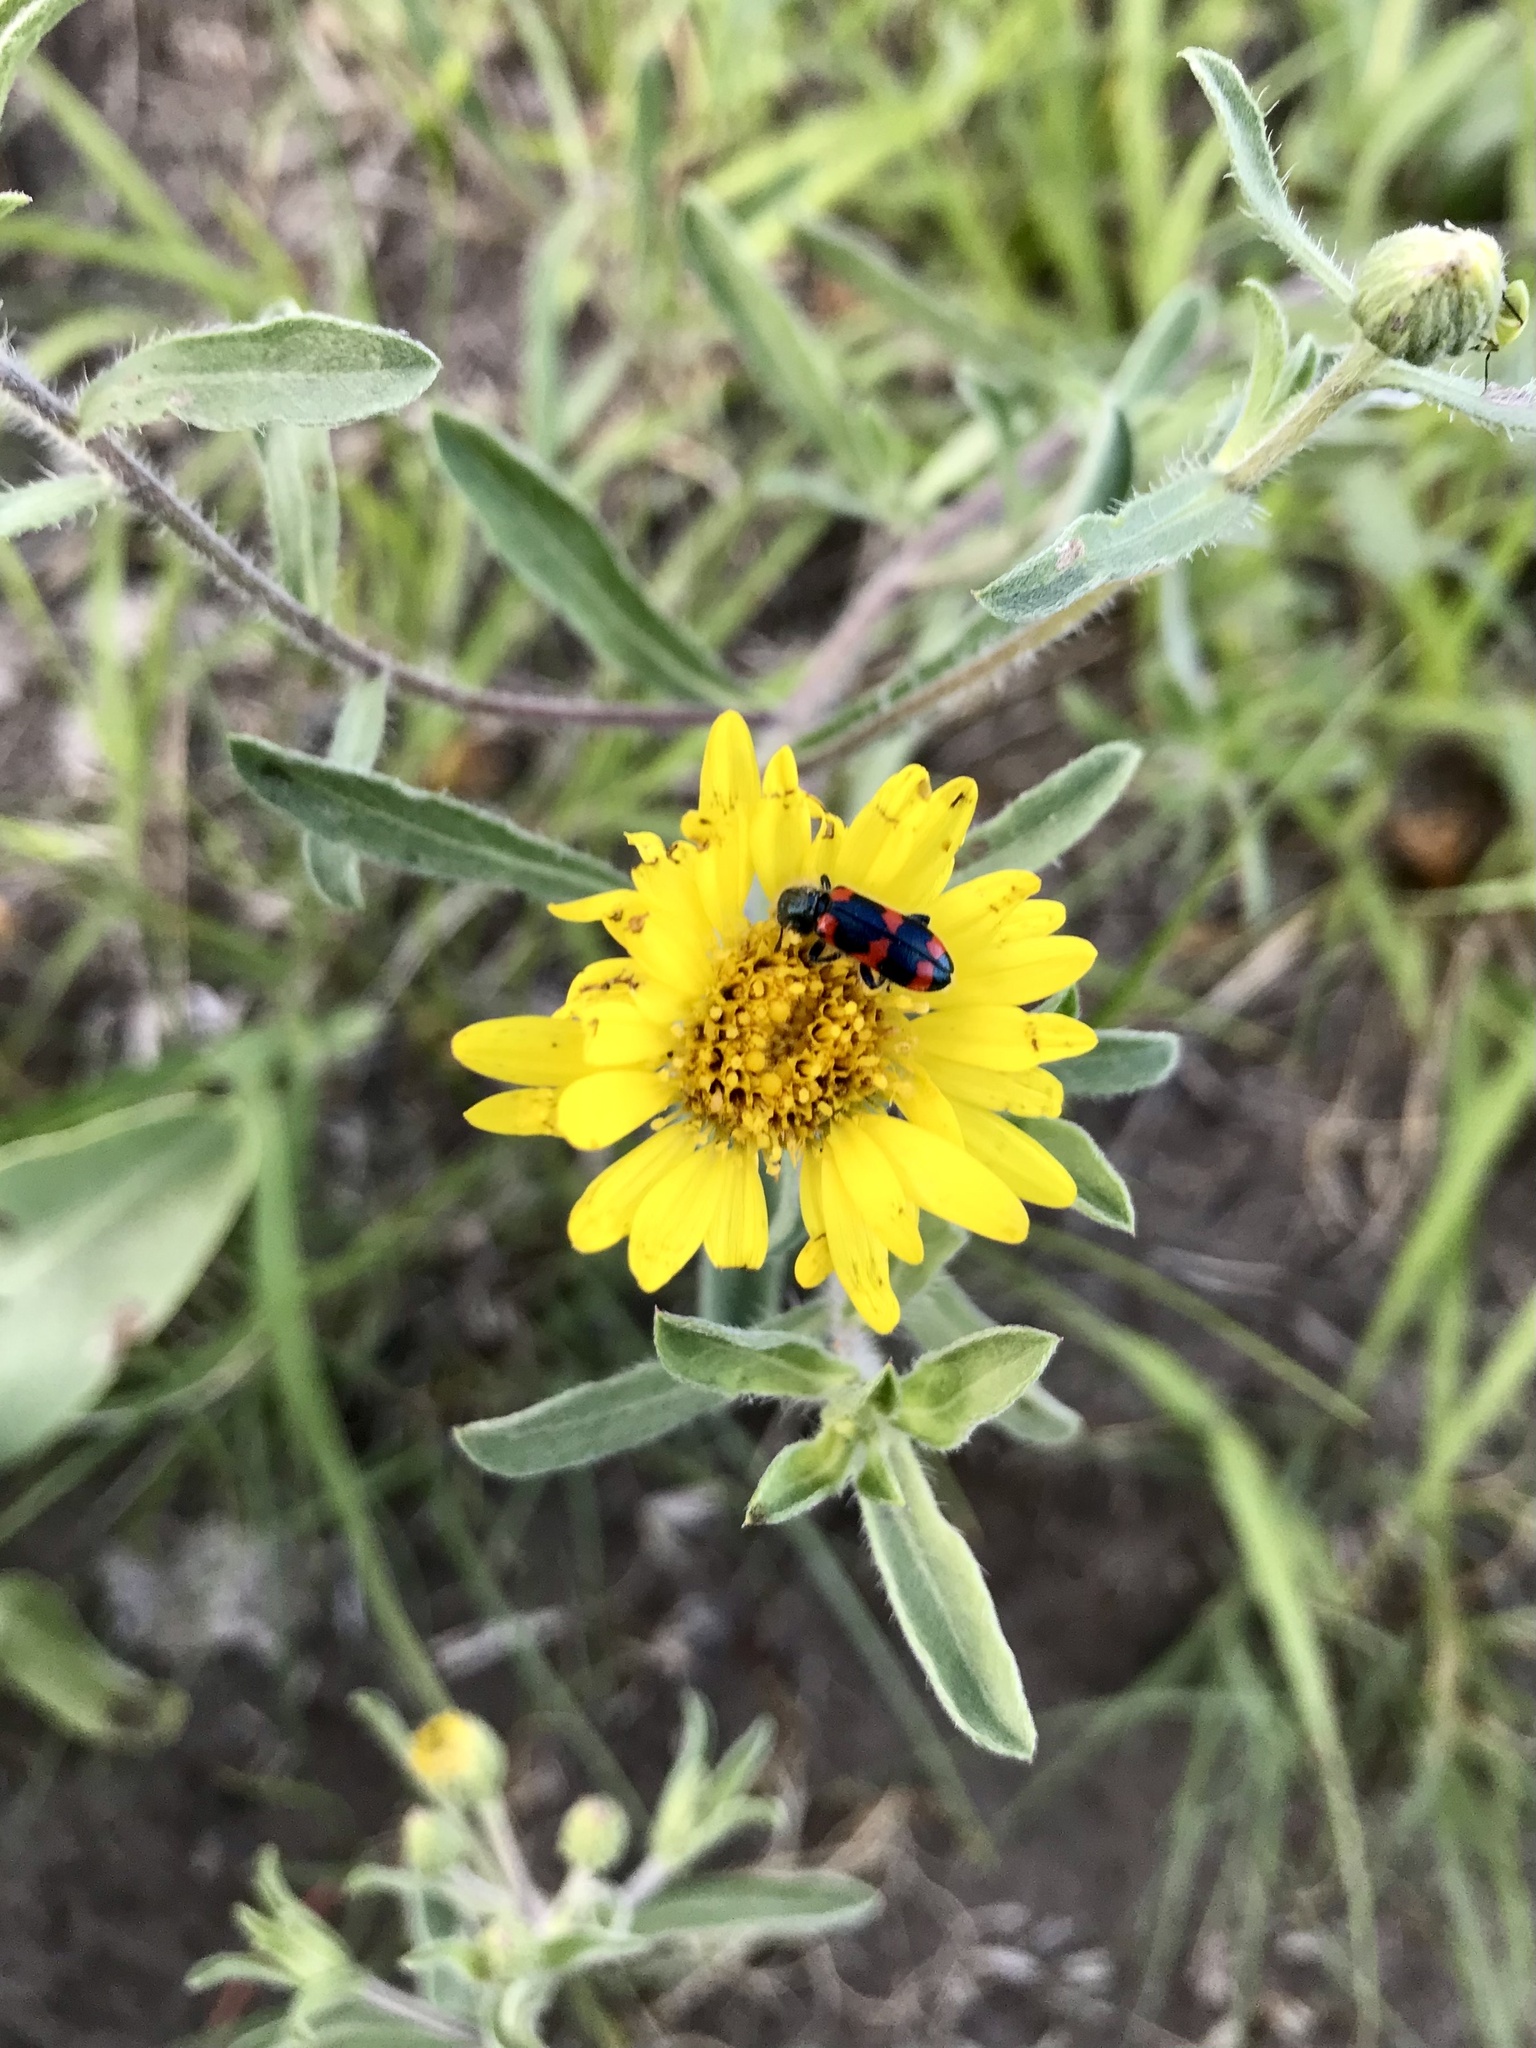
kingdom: Plantae
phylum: Tracheophyta
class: Magnoliopsida
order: Asterales
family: Asteraceae
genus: Heterotheca
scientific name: Heterotheca villosa
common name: Hairy false goldenaster
